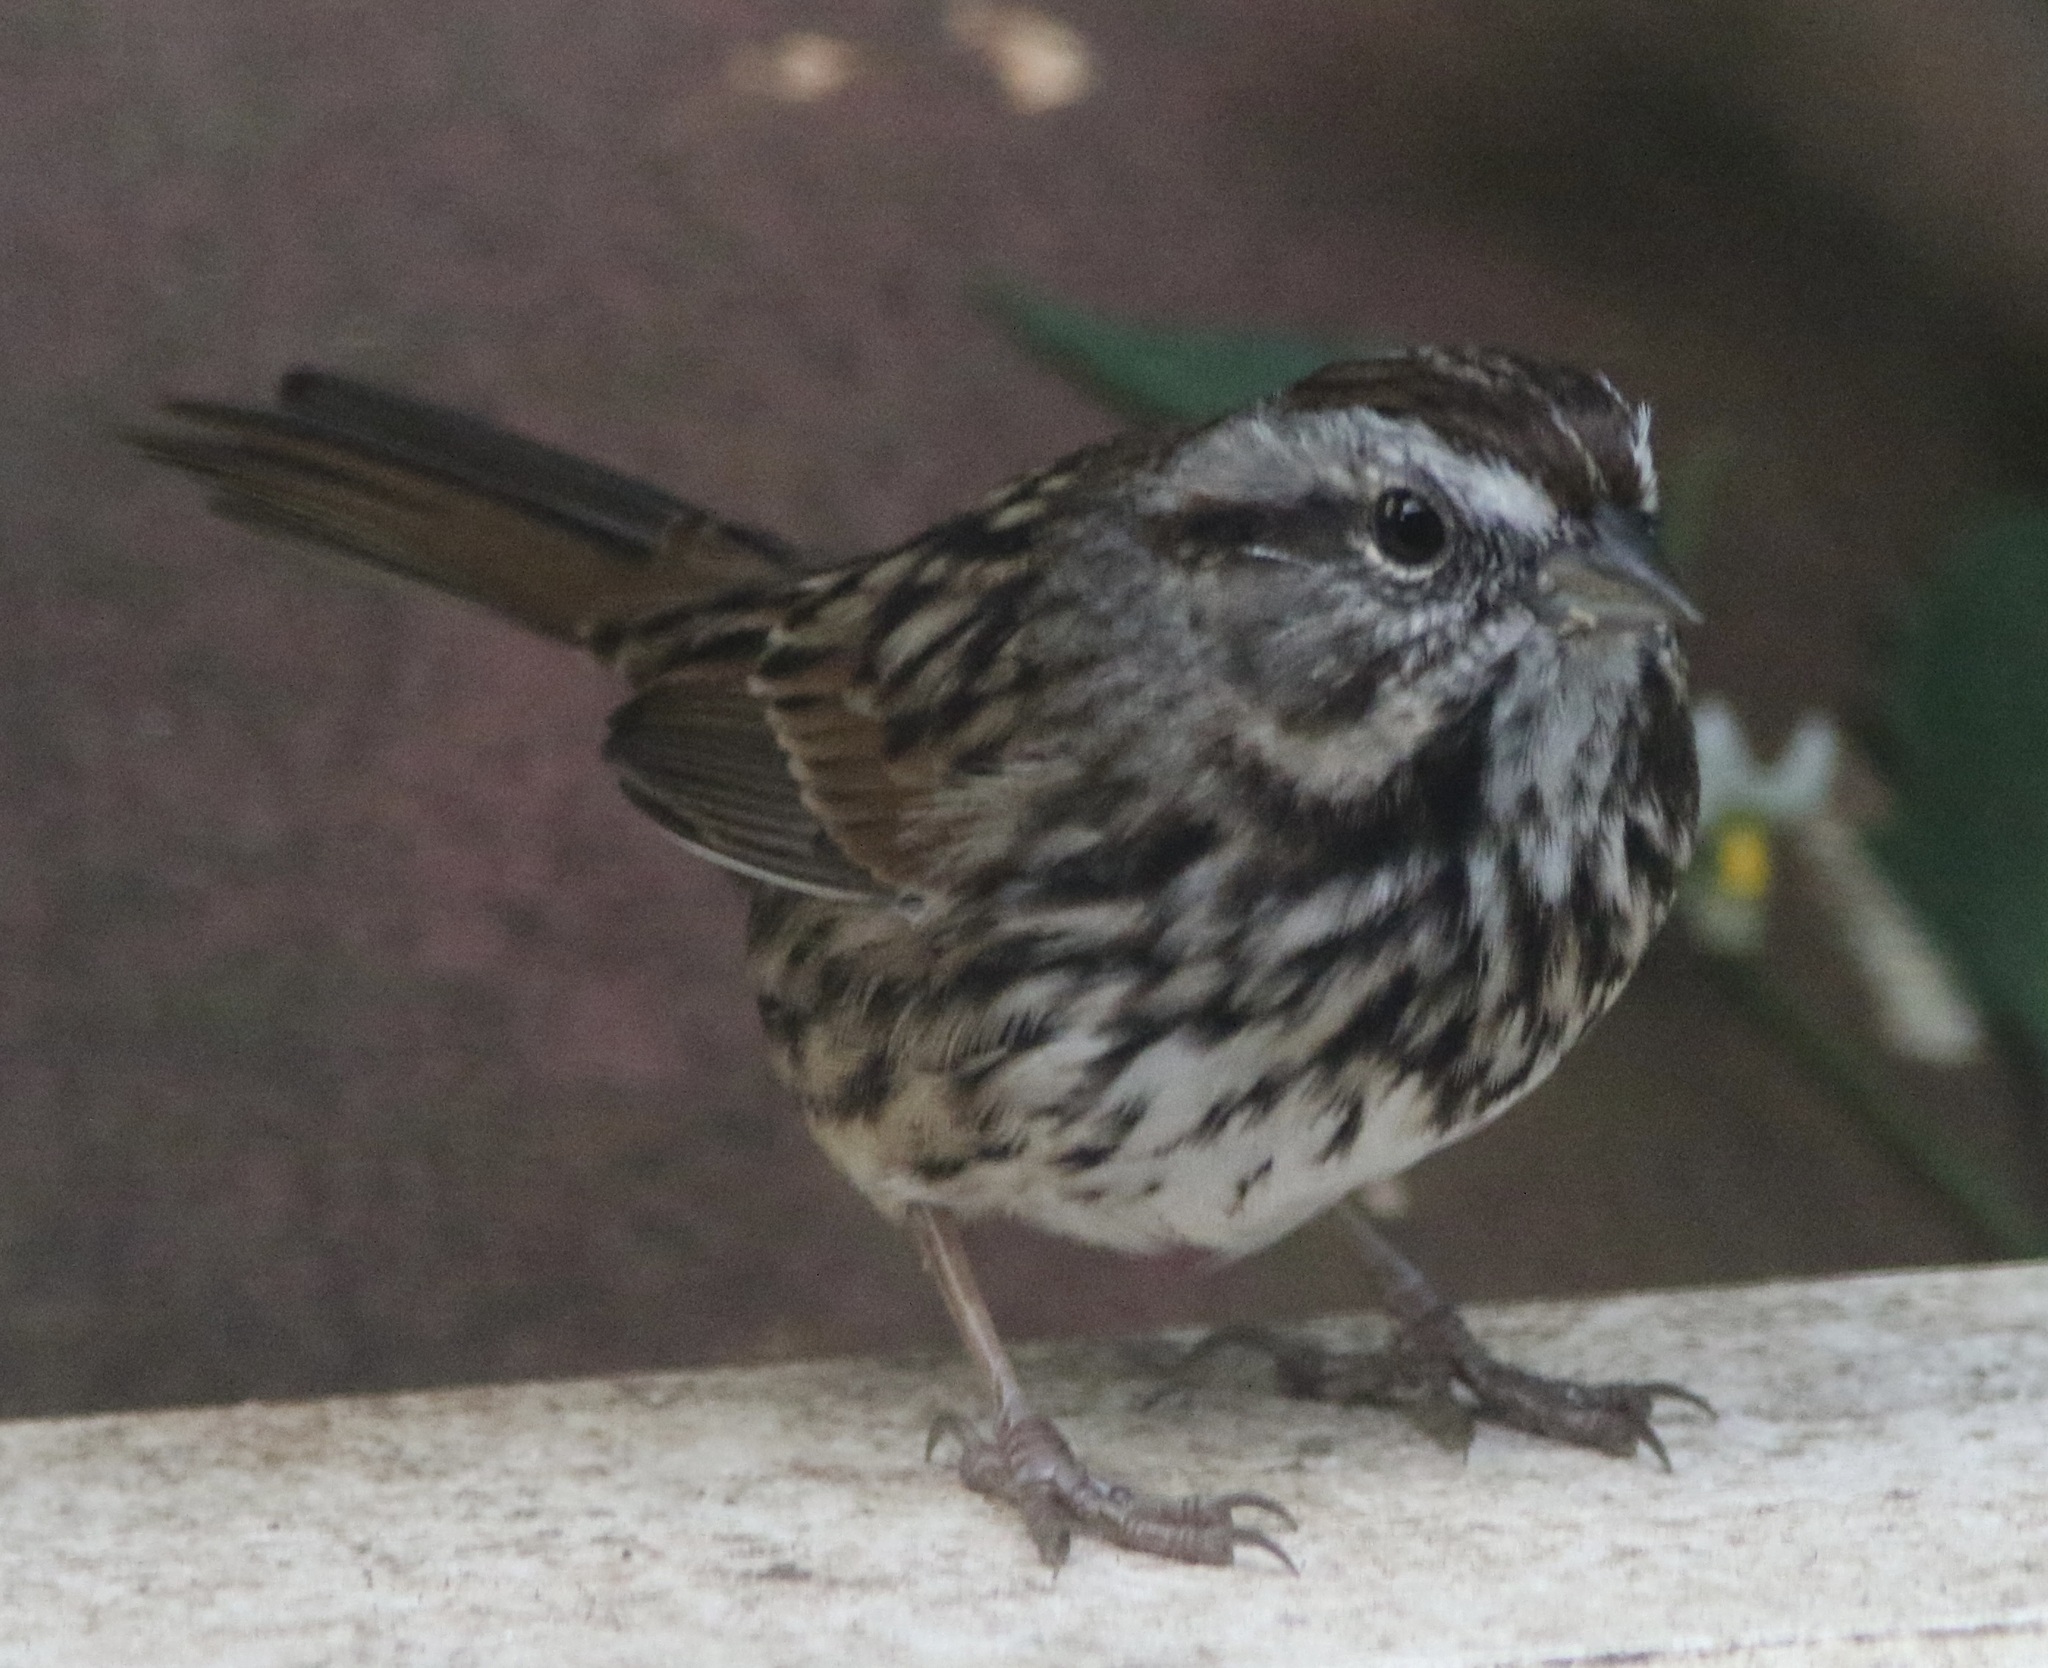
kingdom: Animalia
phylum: Chordata
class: Aves
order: Passeriformes
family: Passerellidae
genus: Melospiza
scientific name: Melospiza melodia
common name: Song sparrow
